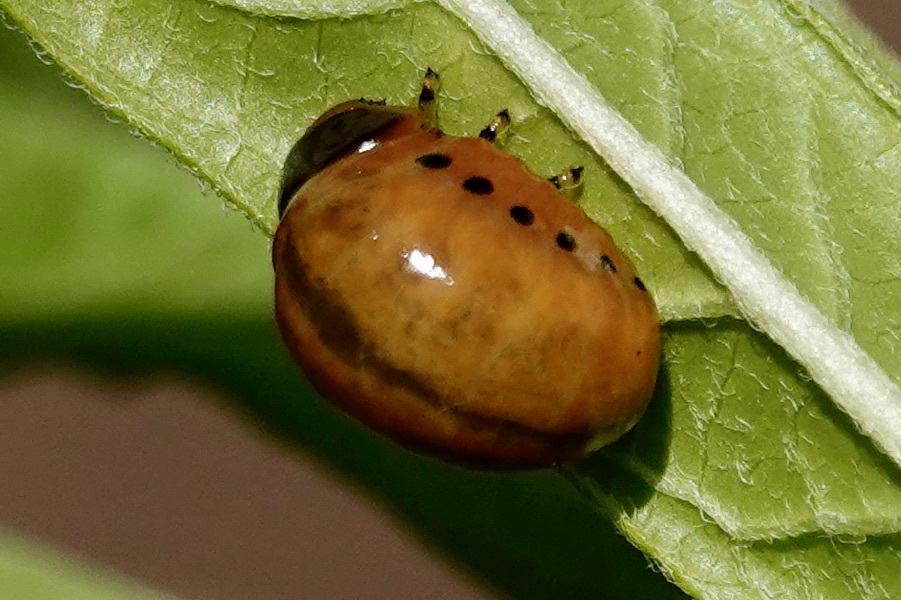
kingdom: Animalia
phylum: Arthropoda
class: Insecta
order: Coleoptera
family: Chrysomelidae
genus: Labidomera
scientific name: Labidomera clivicollis
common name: Swamp milkweed leaf beetle
